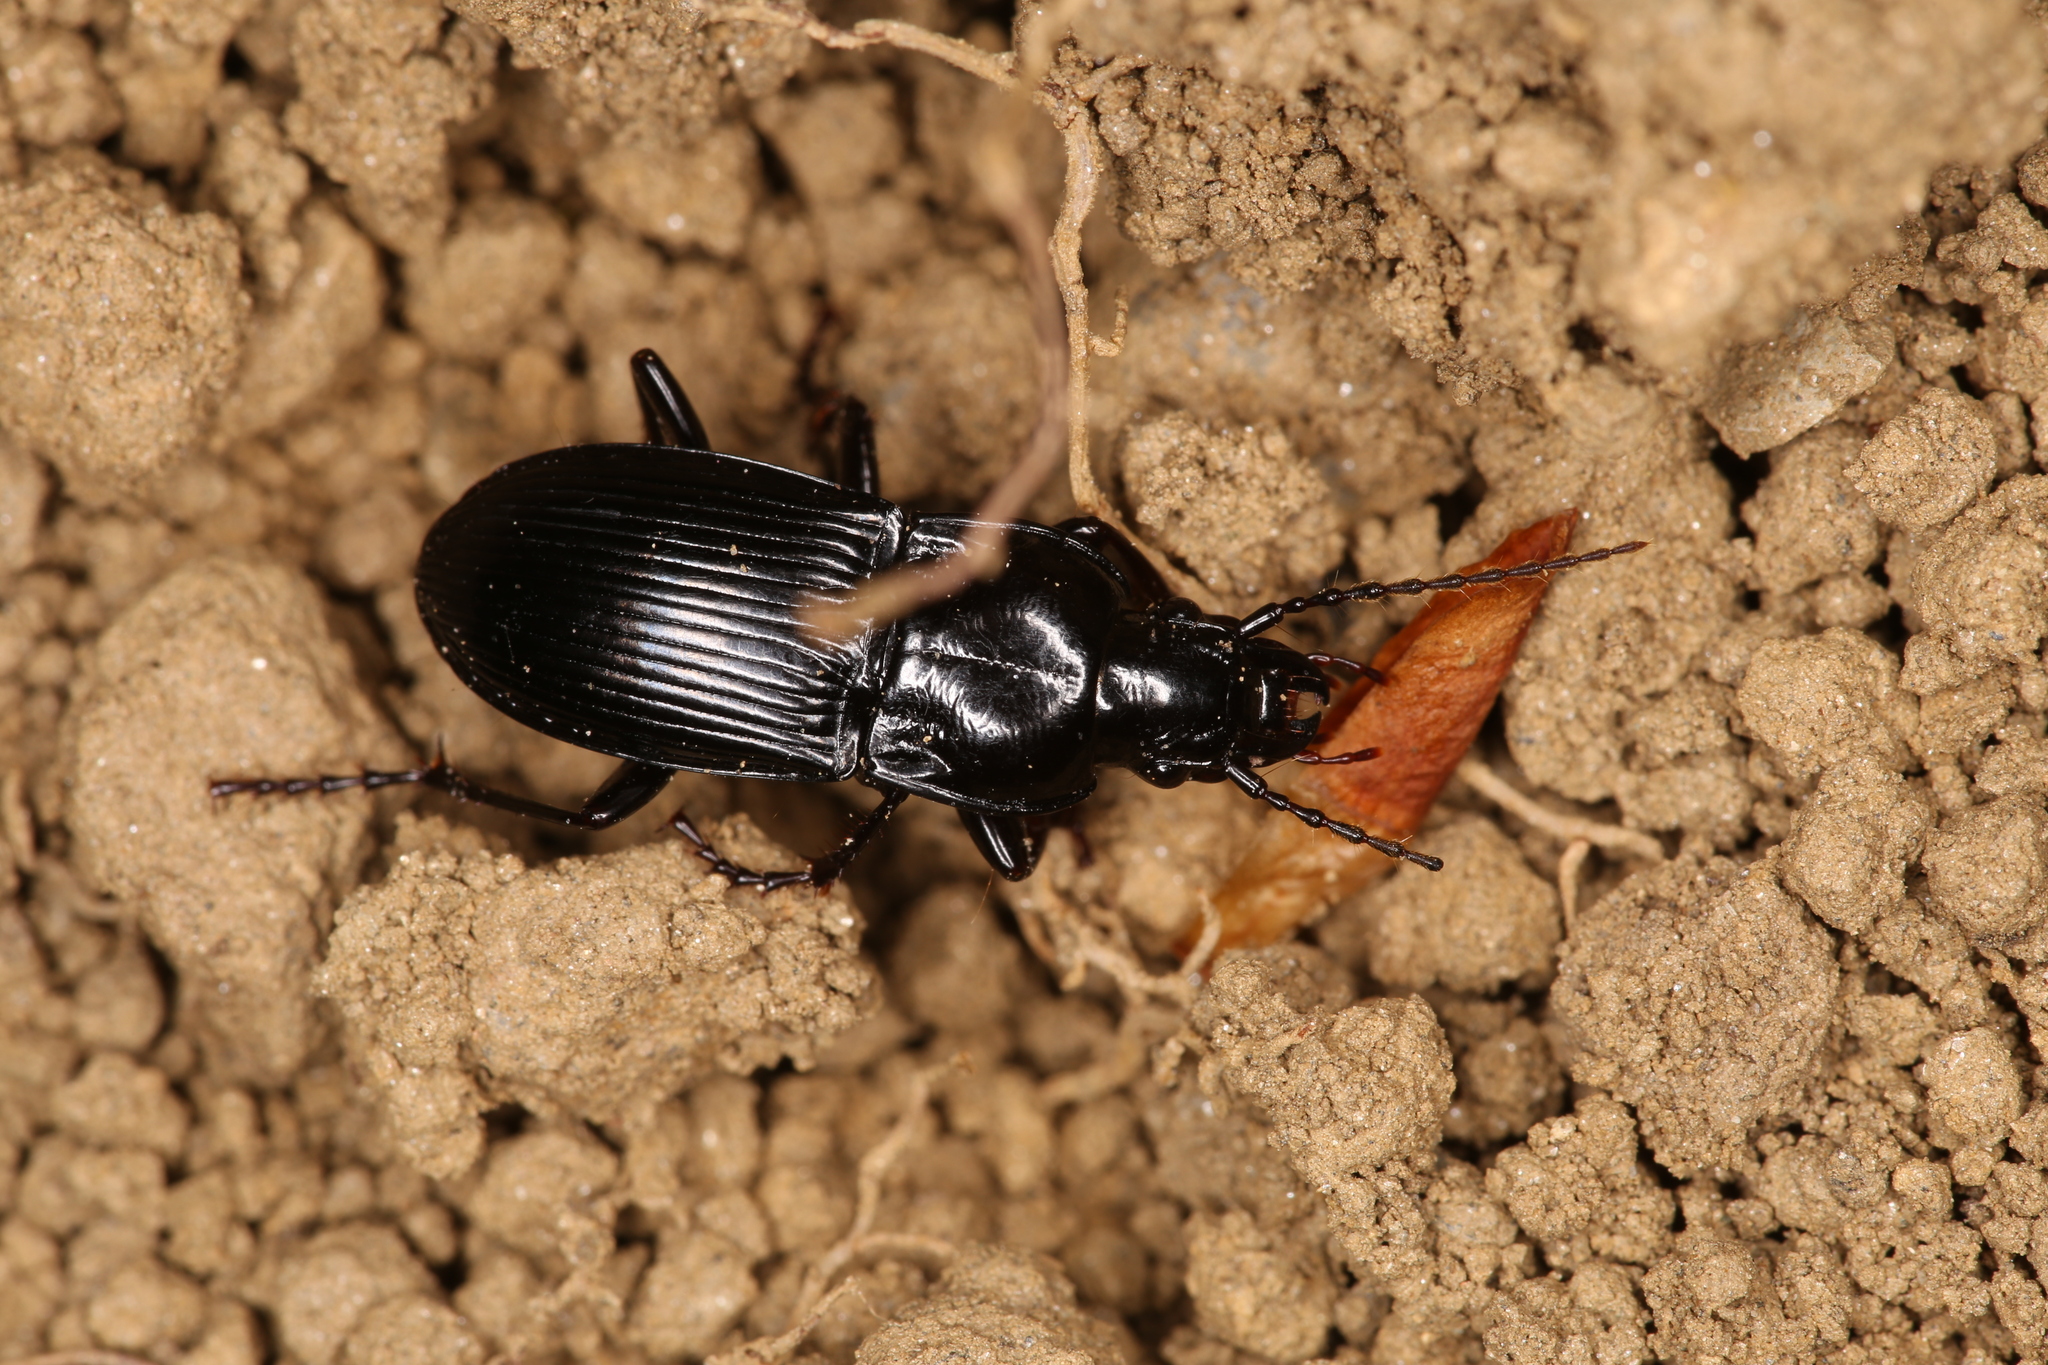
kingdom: Animalia
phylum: Arthropoda
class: Insecta
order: Coleoptera
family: Carabidae
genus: Abax
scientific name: Abax parallelus
